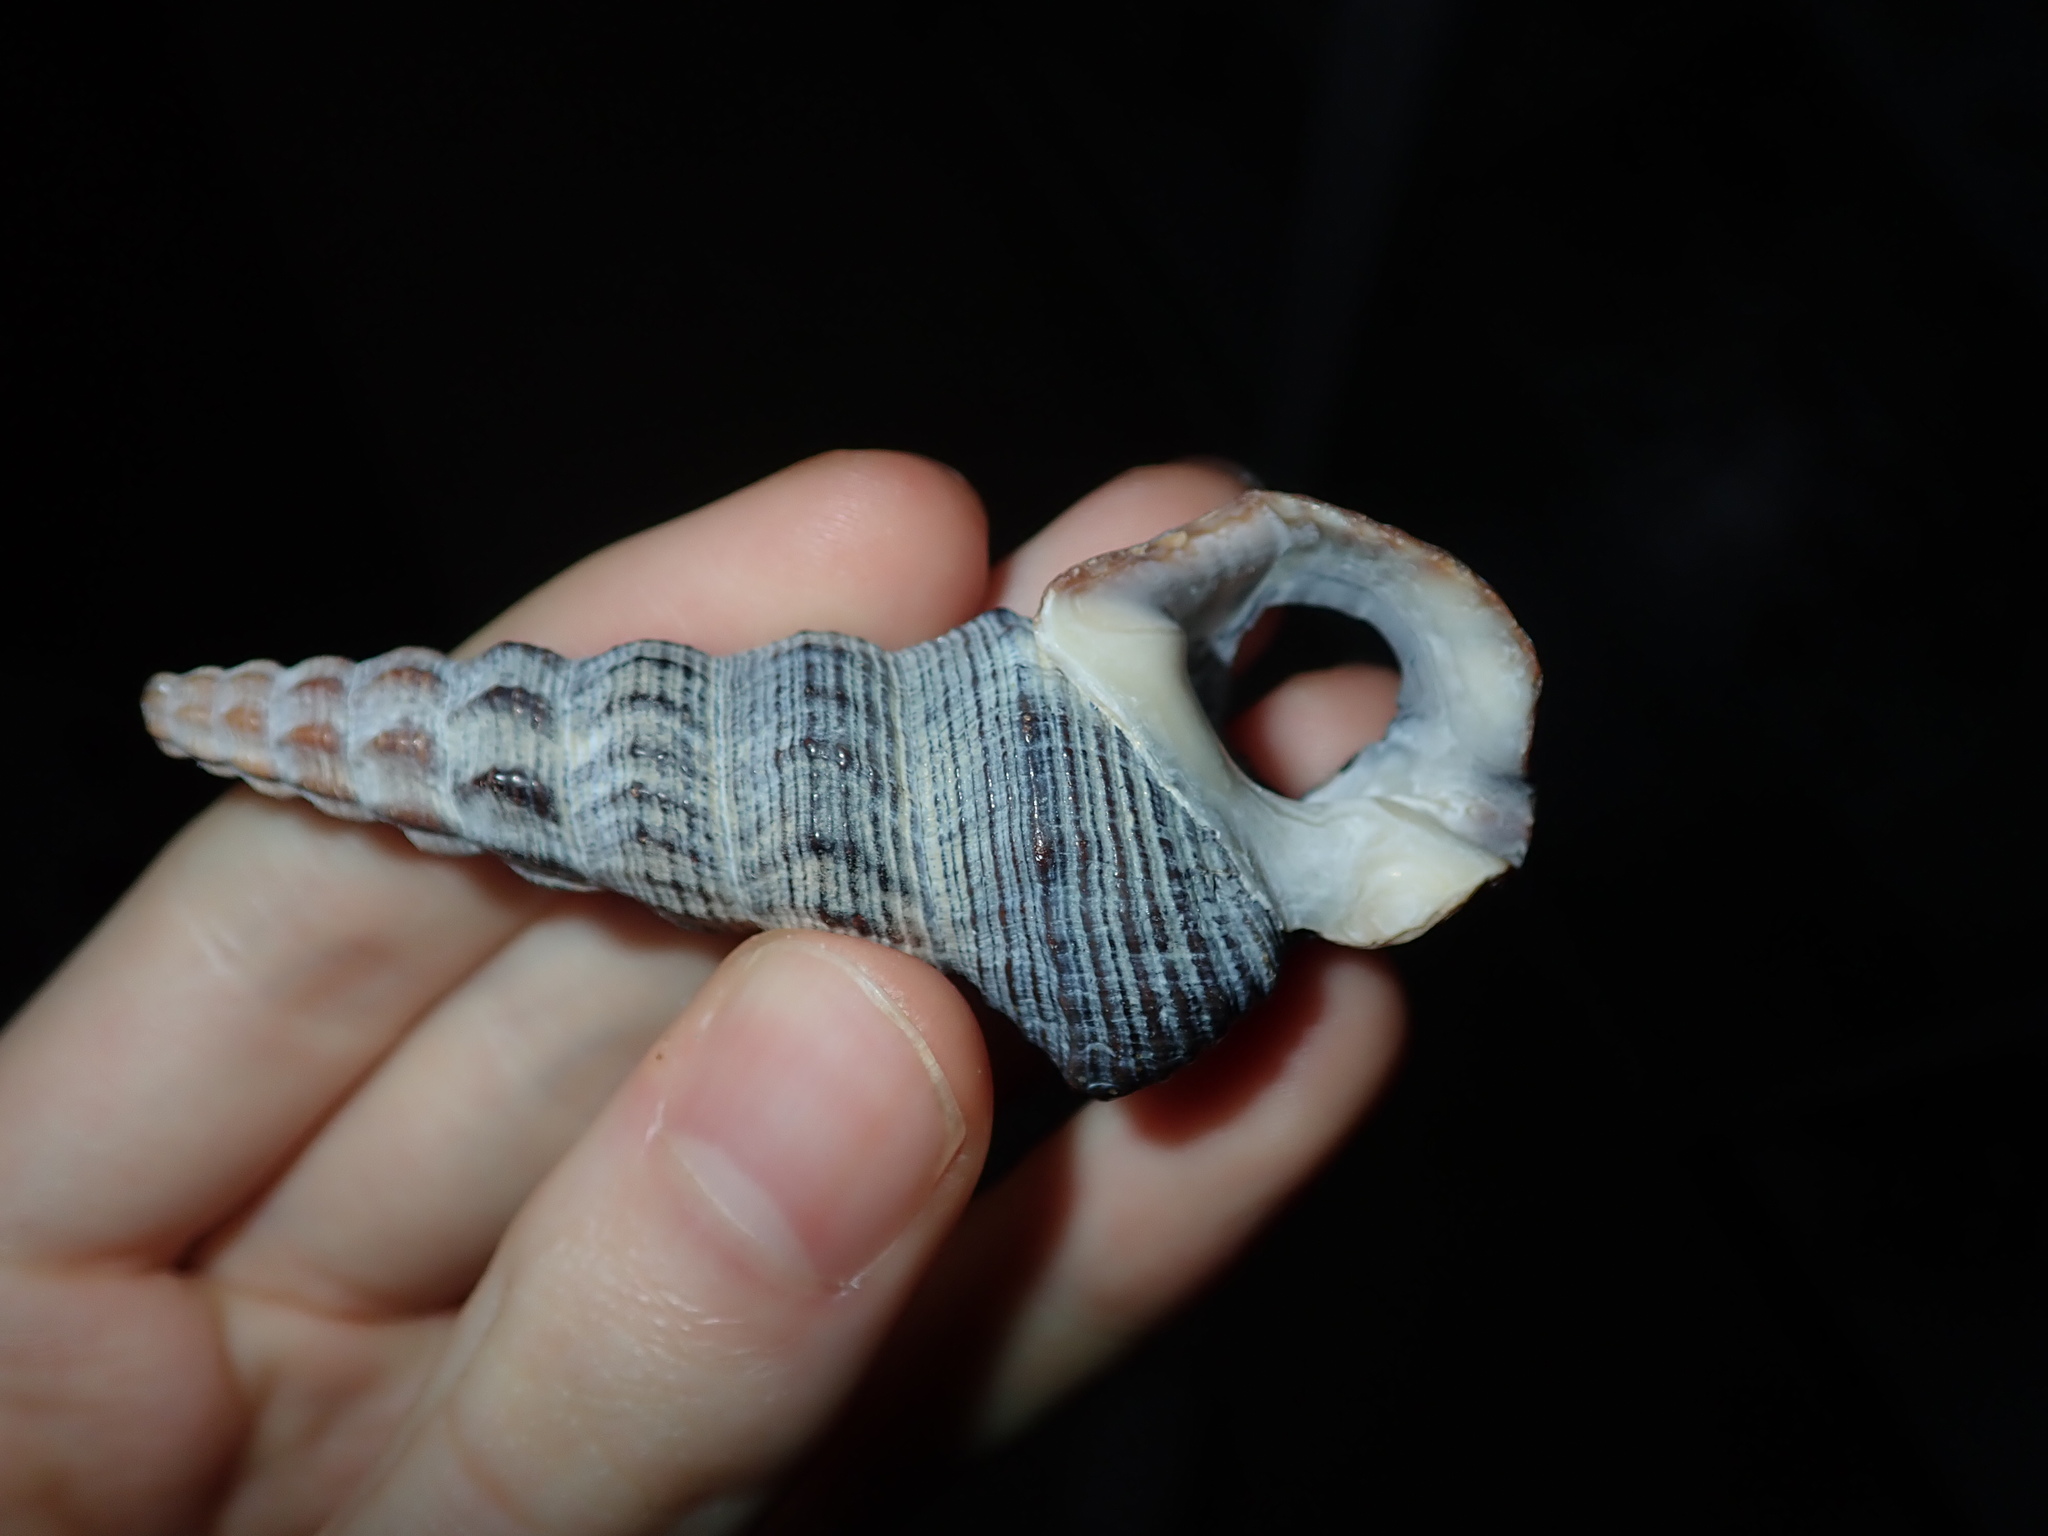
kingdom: Animalia
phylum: Mollusca
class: Gastropoda
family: Batillariidae
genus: Pyrazus
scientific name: Pyrazus ebeninus
